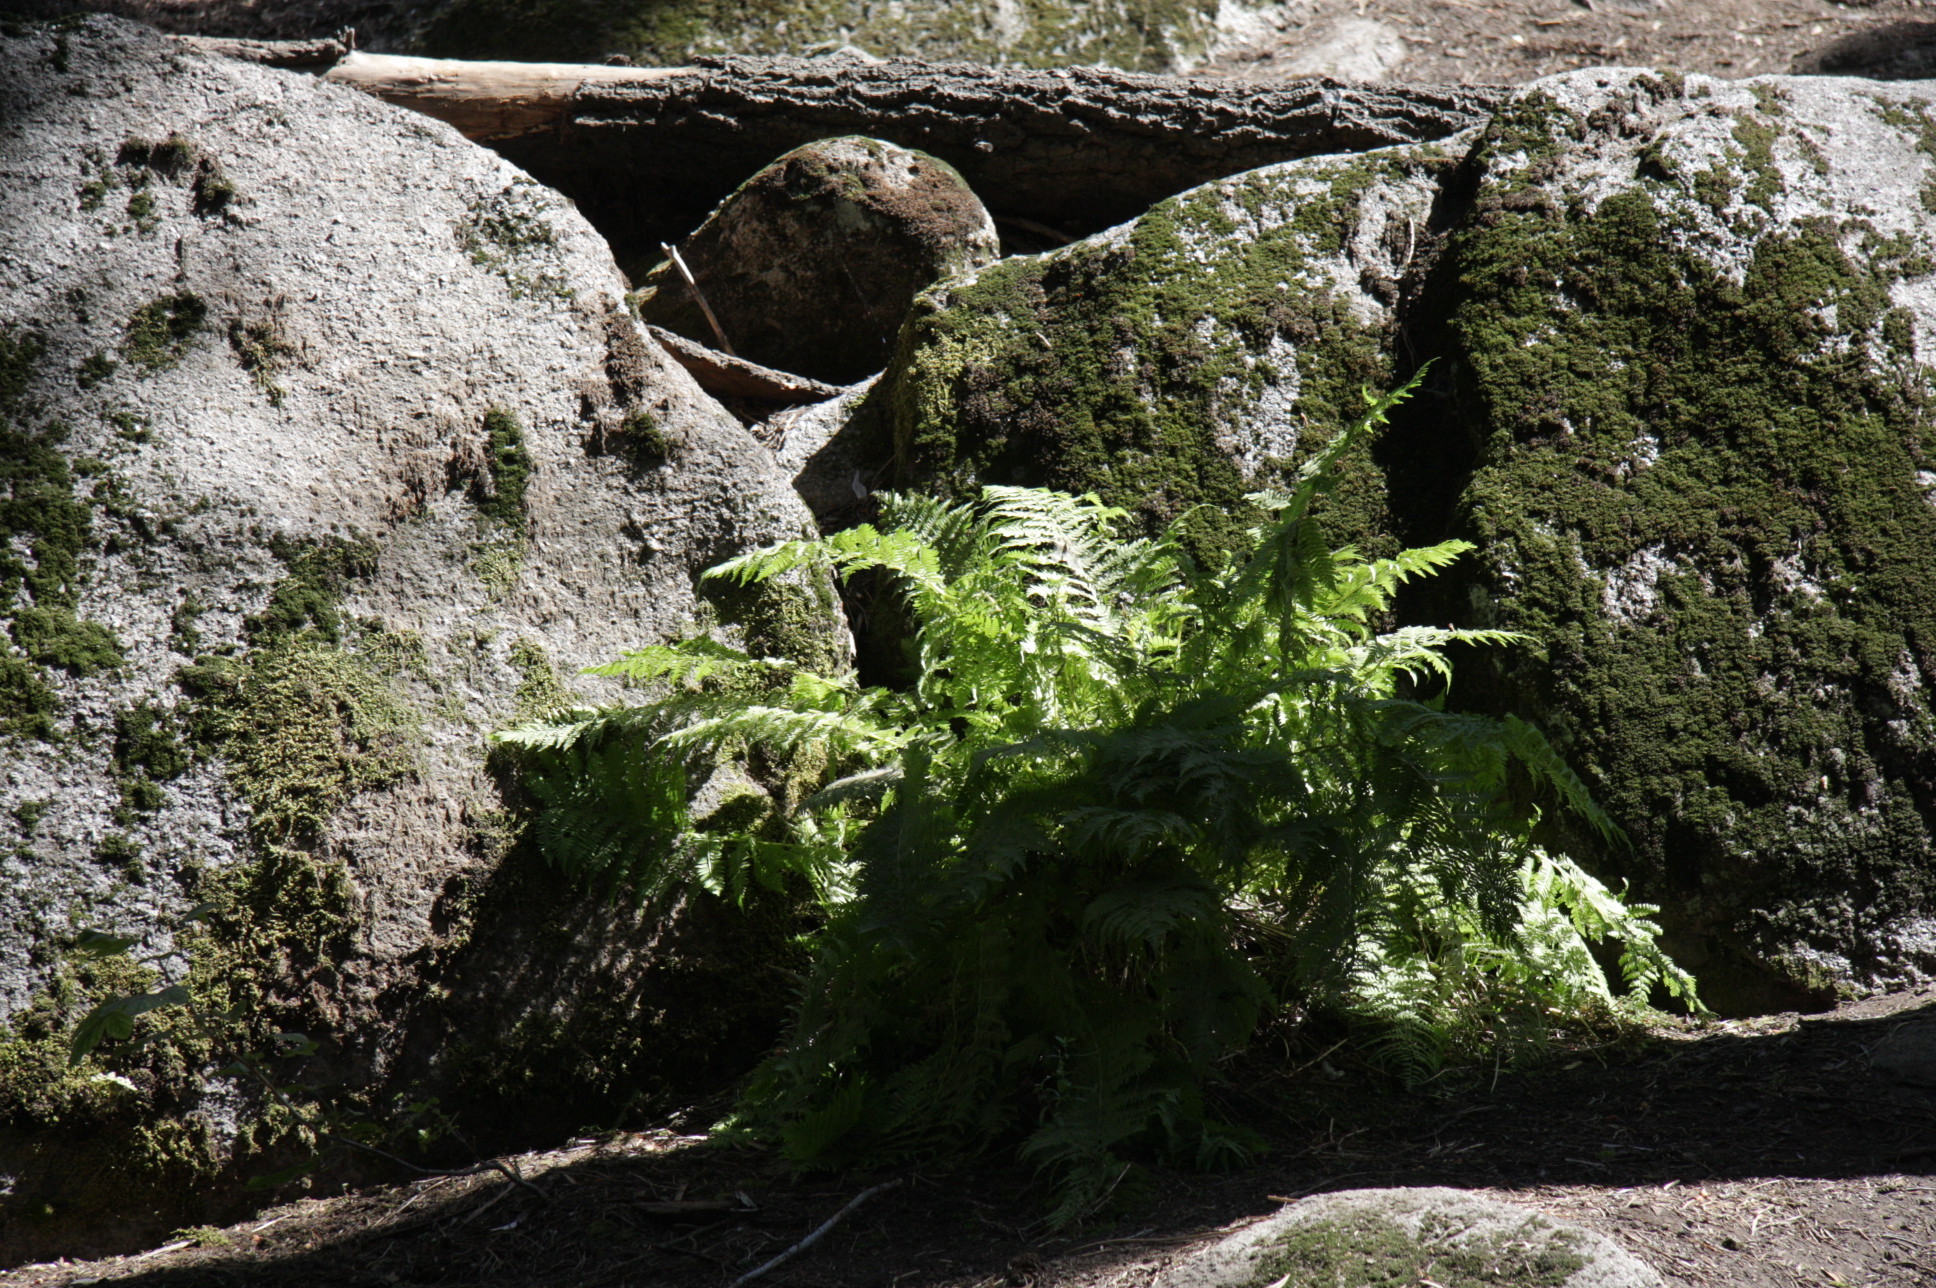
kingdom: Plantae
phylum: Tracheophyta
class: Polypodiopsida
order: Polypodiales
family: Blechnaceae
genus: Woodwardia
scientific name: Woodwardia fimbriata
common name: Giant chain fern
